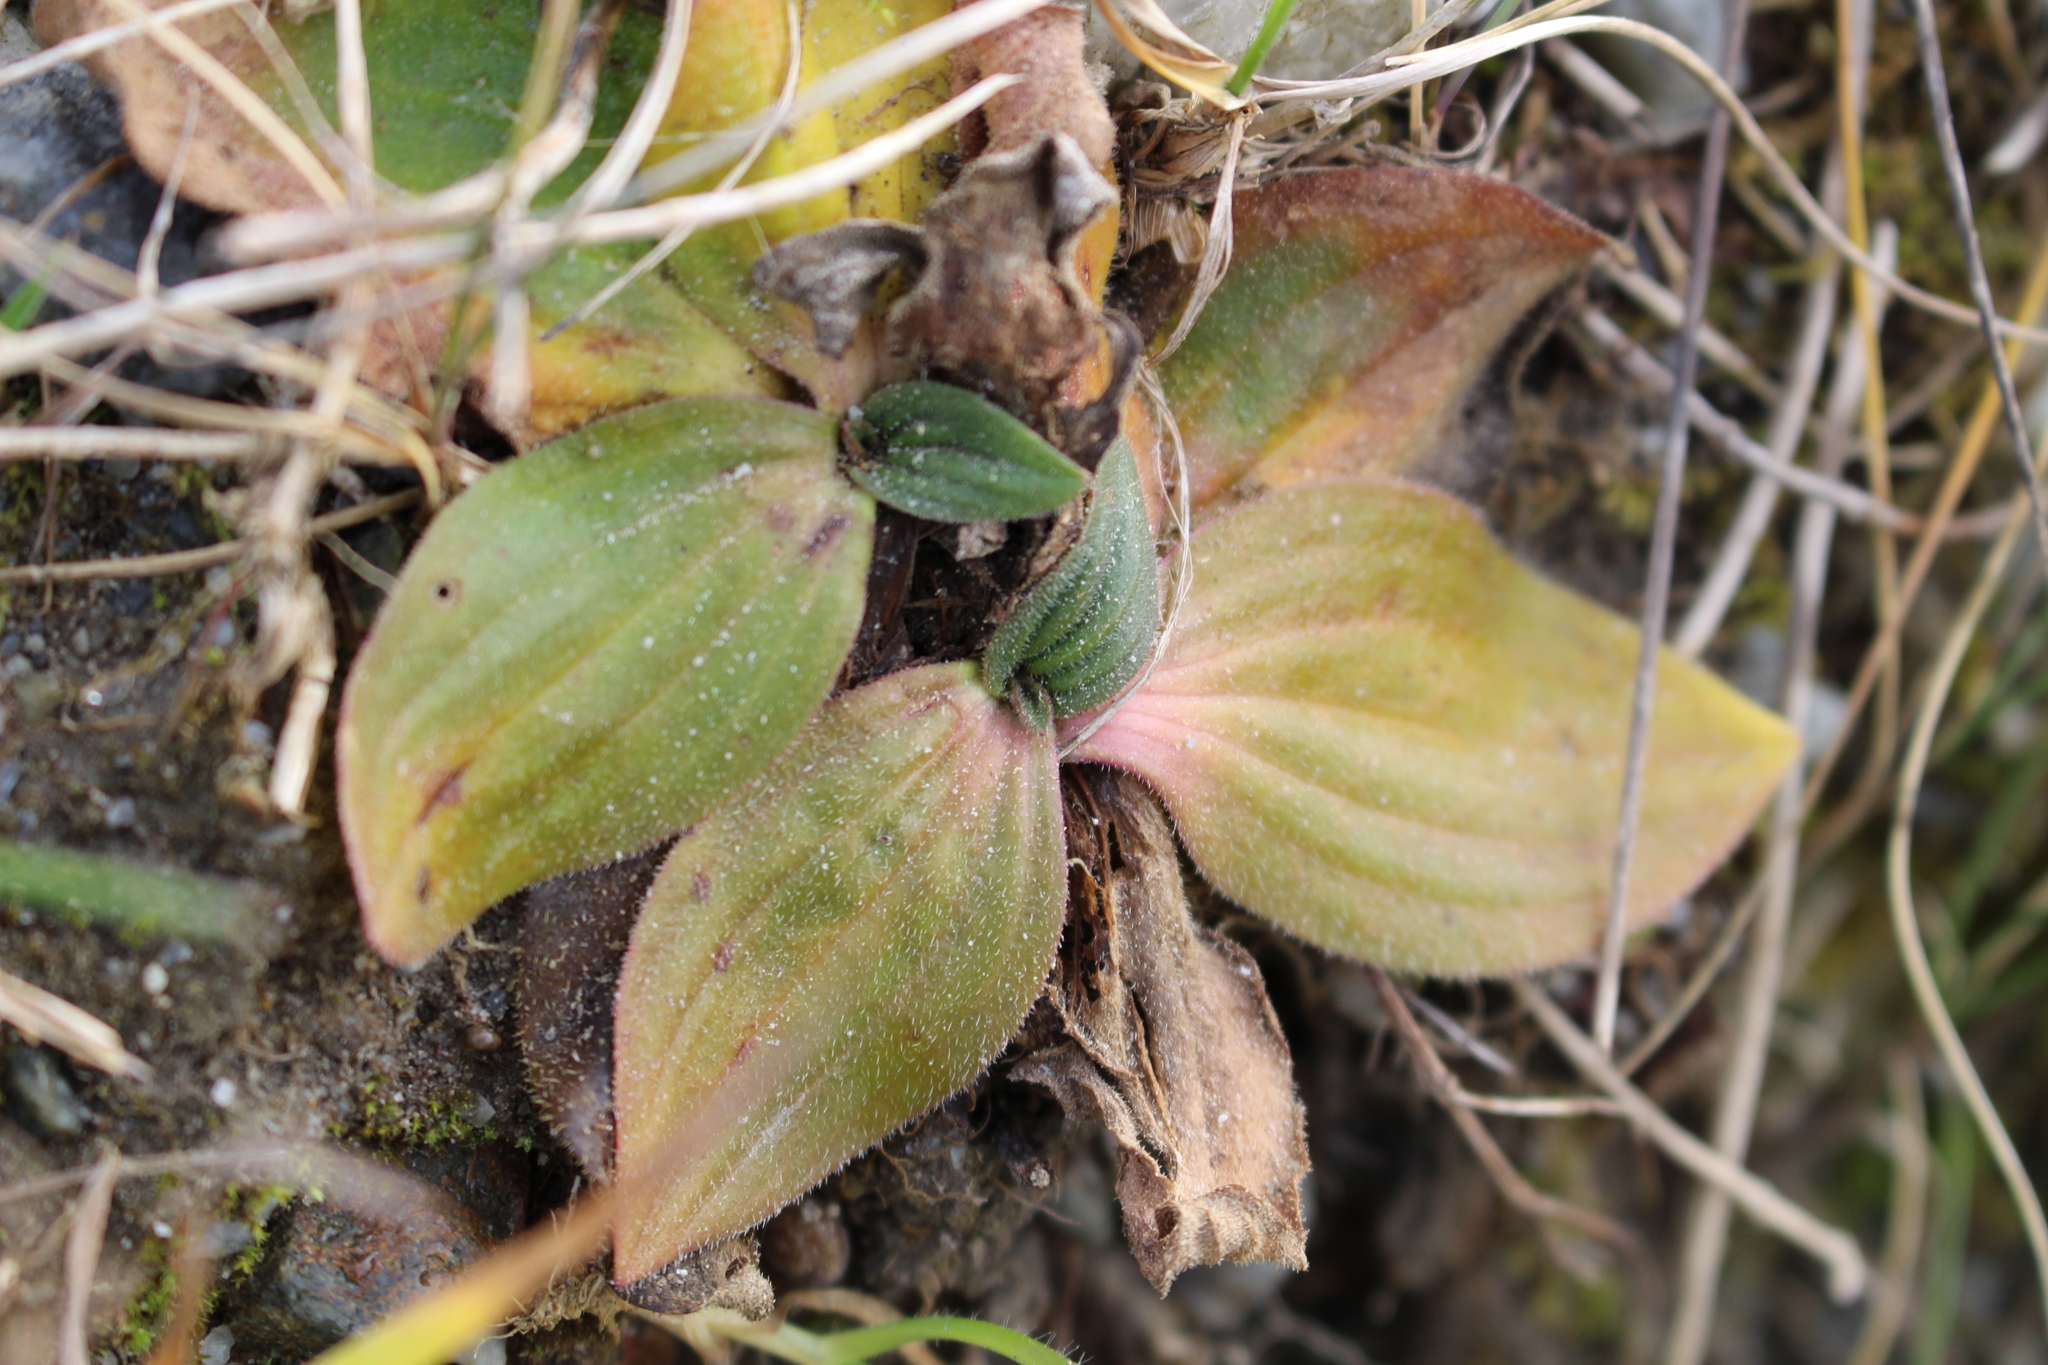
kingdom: Plantae
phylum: Tracheophyta
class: Magnoliopsida
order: Lamiales
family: Plantaginaceae
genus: Plantago
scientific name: Plantago media
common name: Hoary plantain
